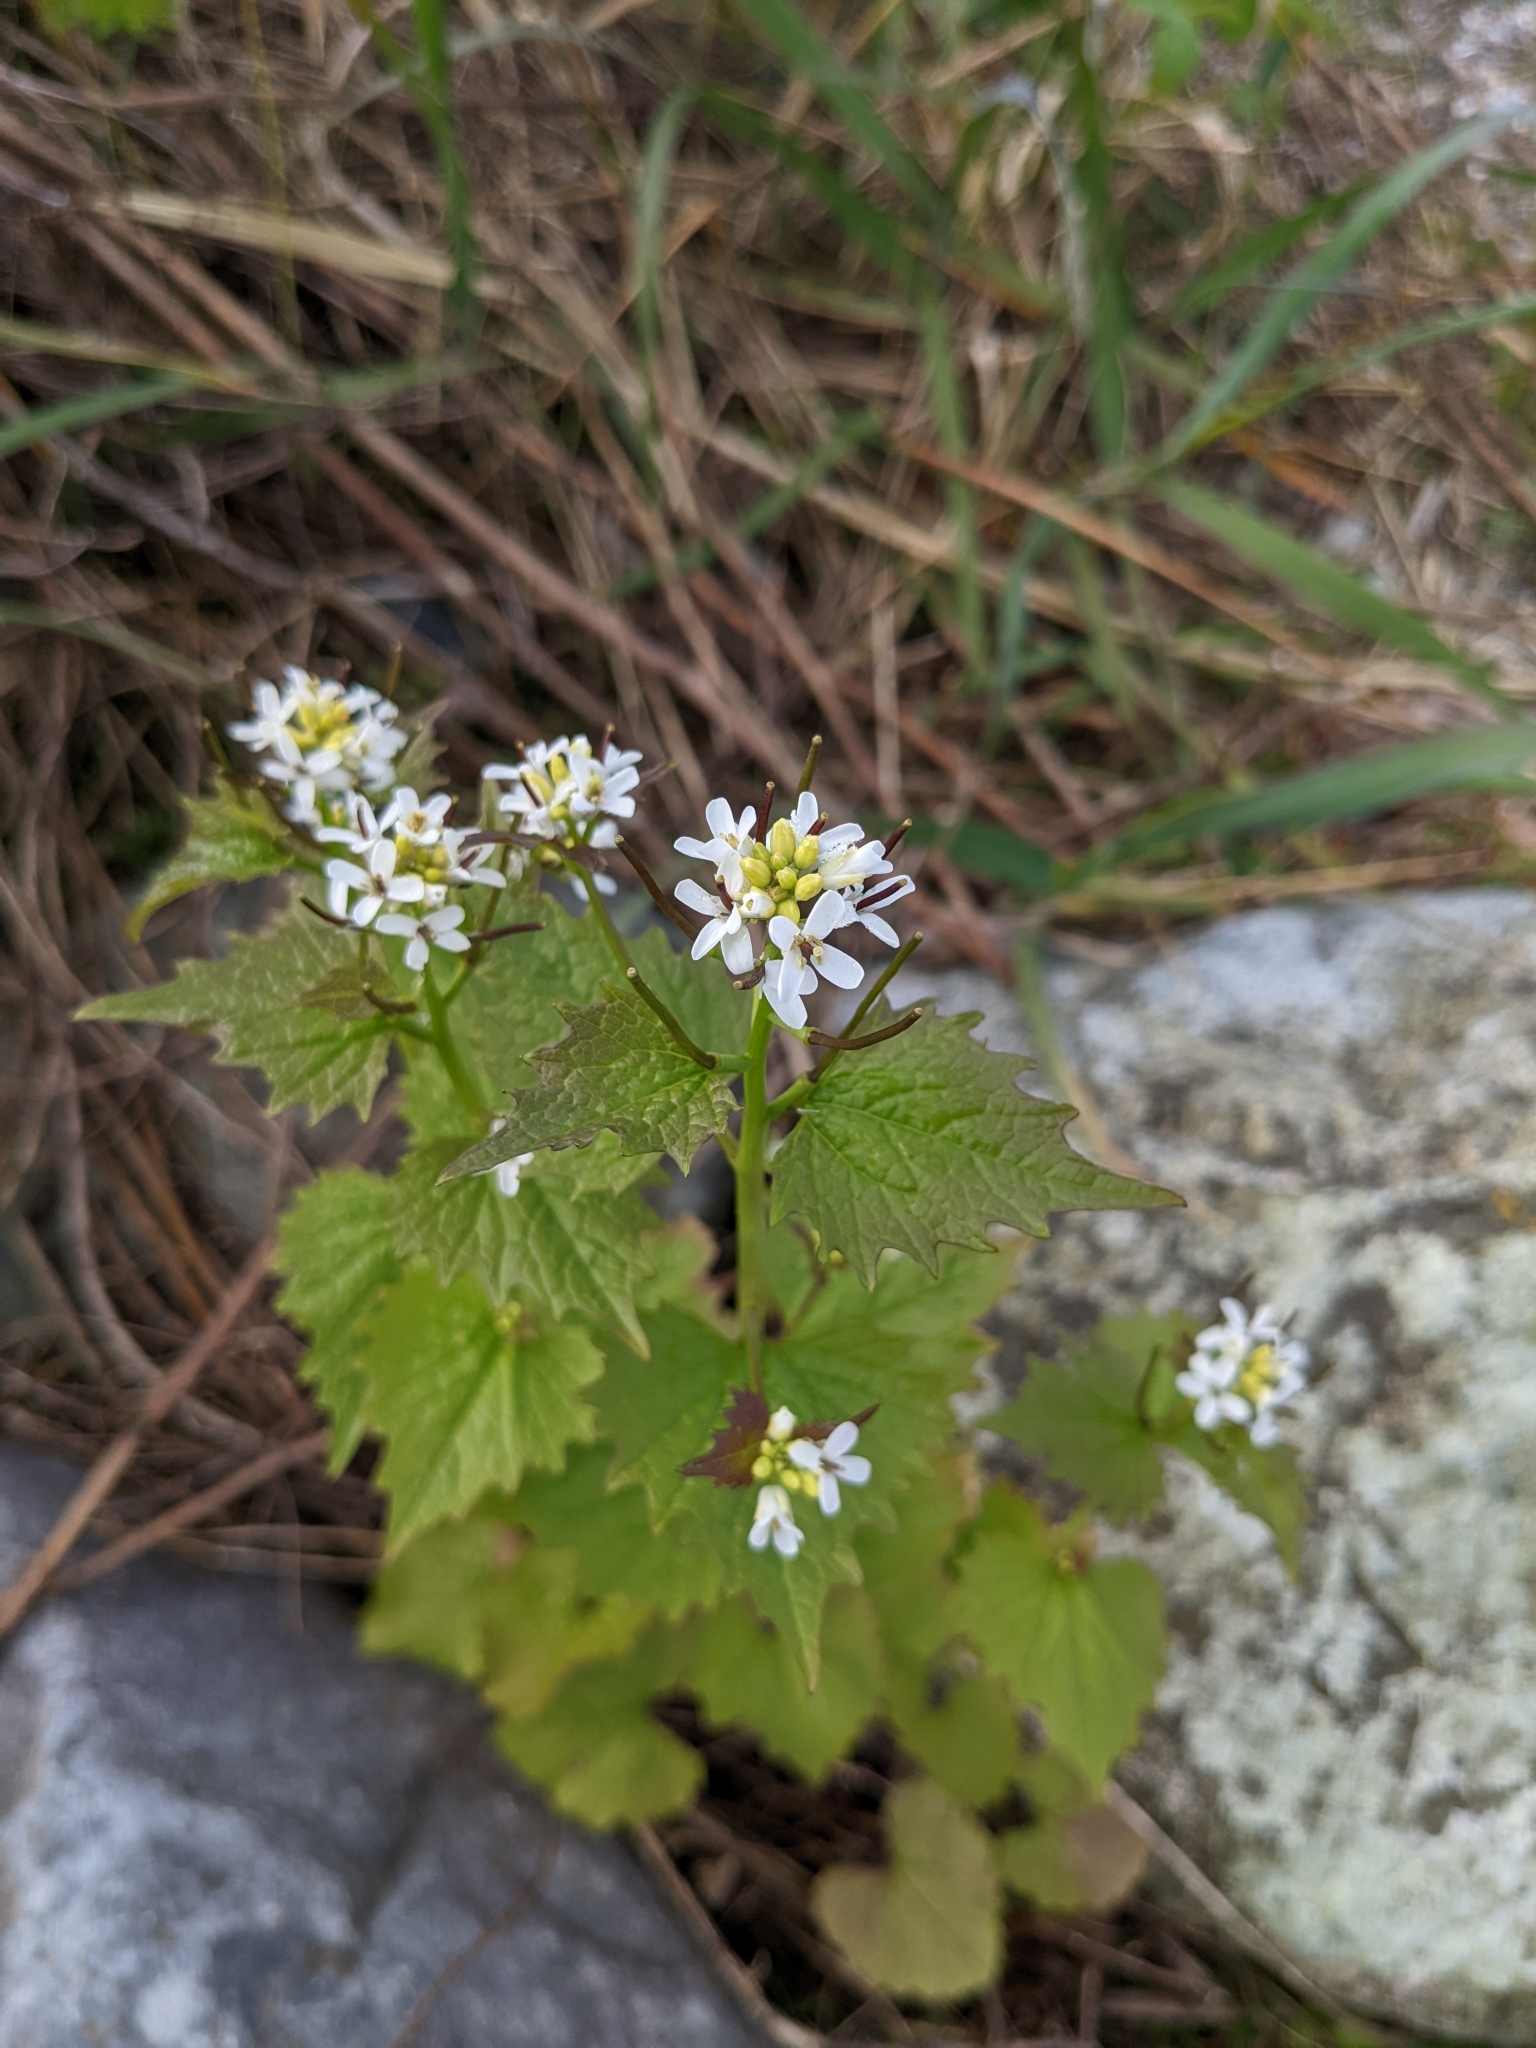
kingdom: Plantae
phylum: Tracheophyta
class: Magnoliopsida
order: Brassicales
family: Brassicaceae
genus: Alliaria
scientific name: Alliaria petiolata
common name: Garlic mustard
